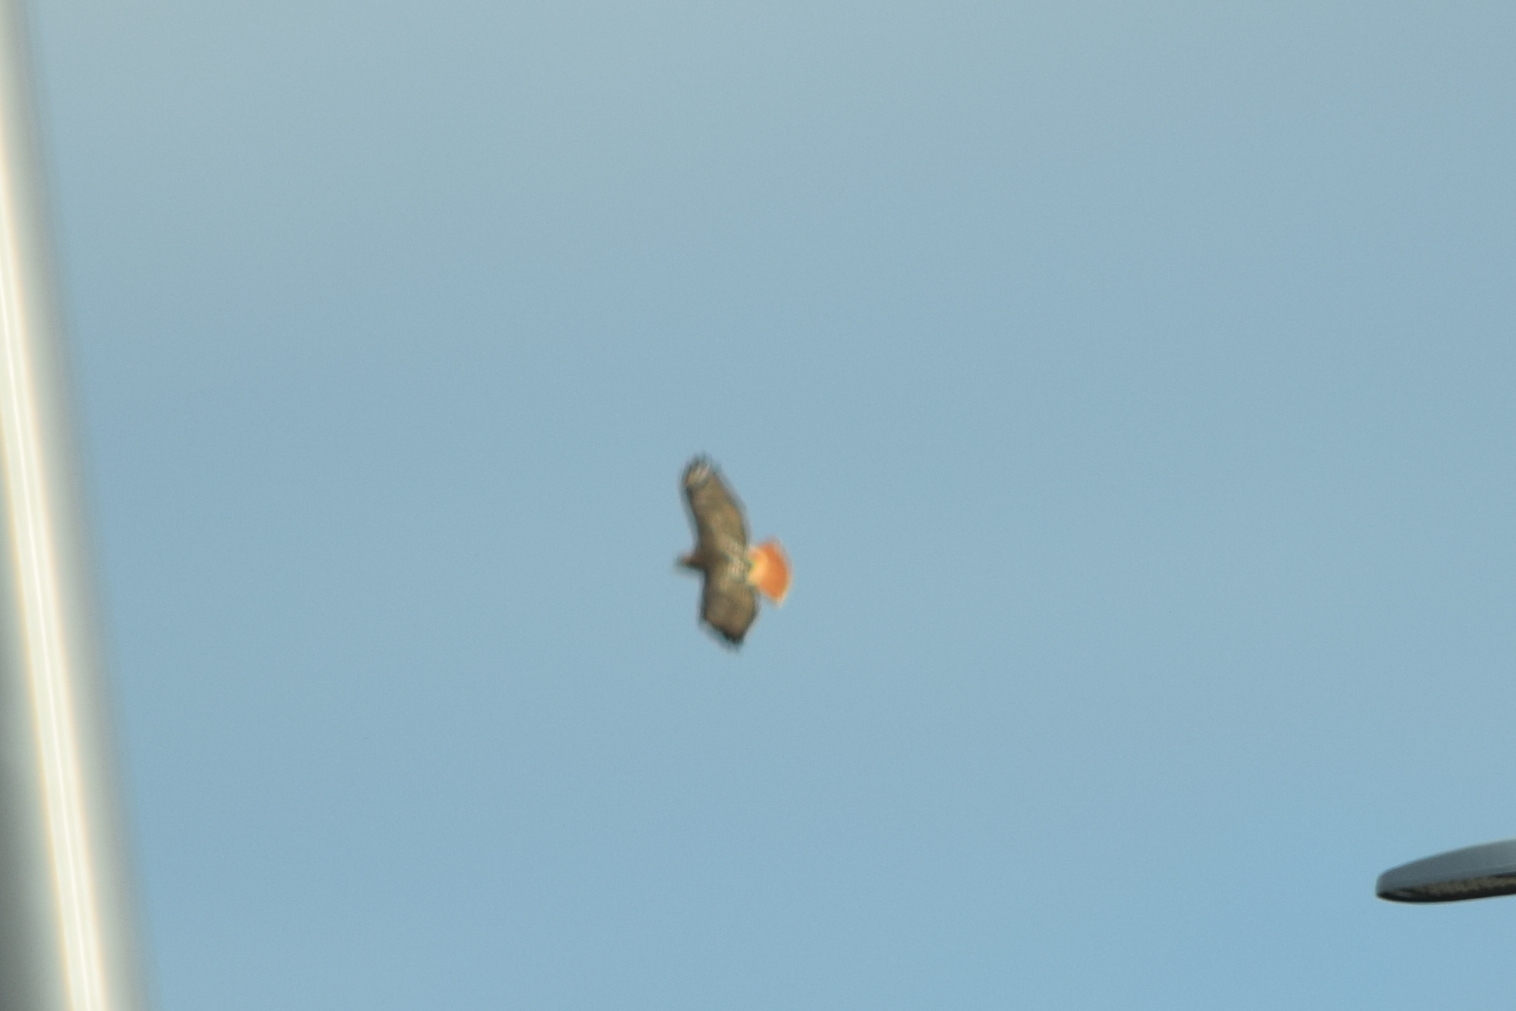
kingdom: Animalia
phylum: Chordata
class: Aves
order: Accipitriformes
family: Accipitridae
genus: Buteo
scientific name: Buteo jamaicensis
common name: Red-tailed hawk
